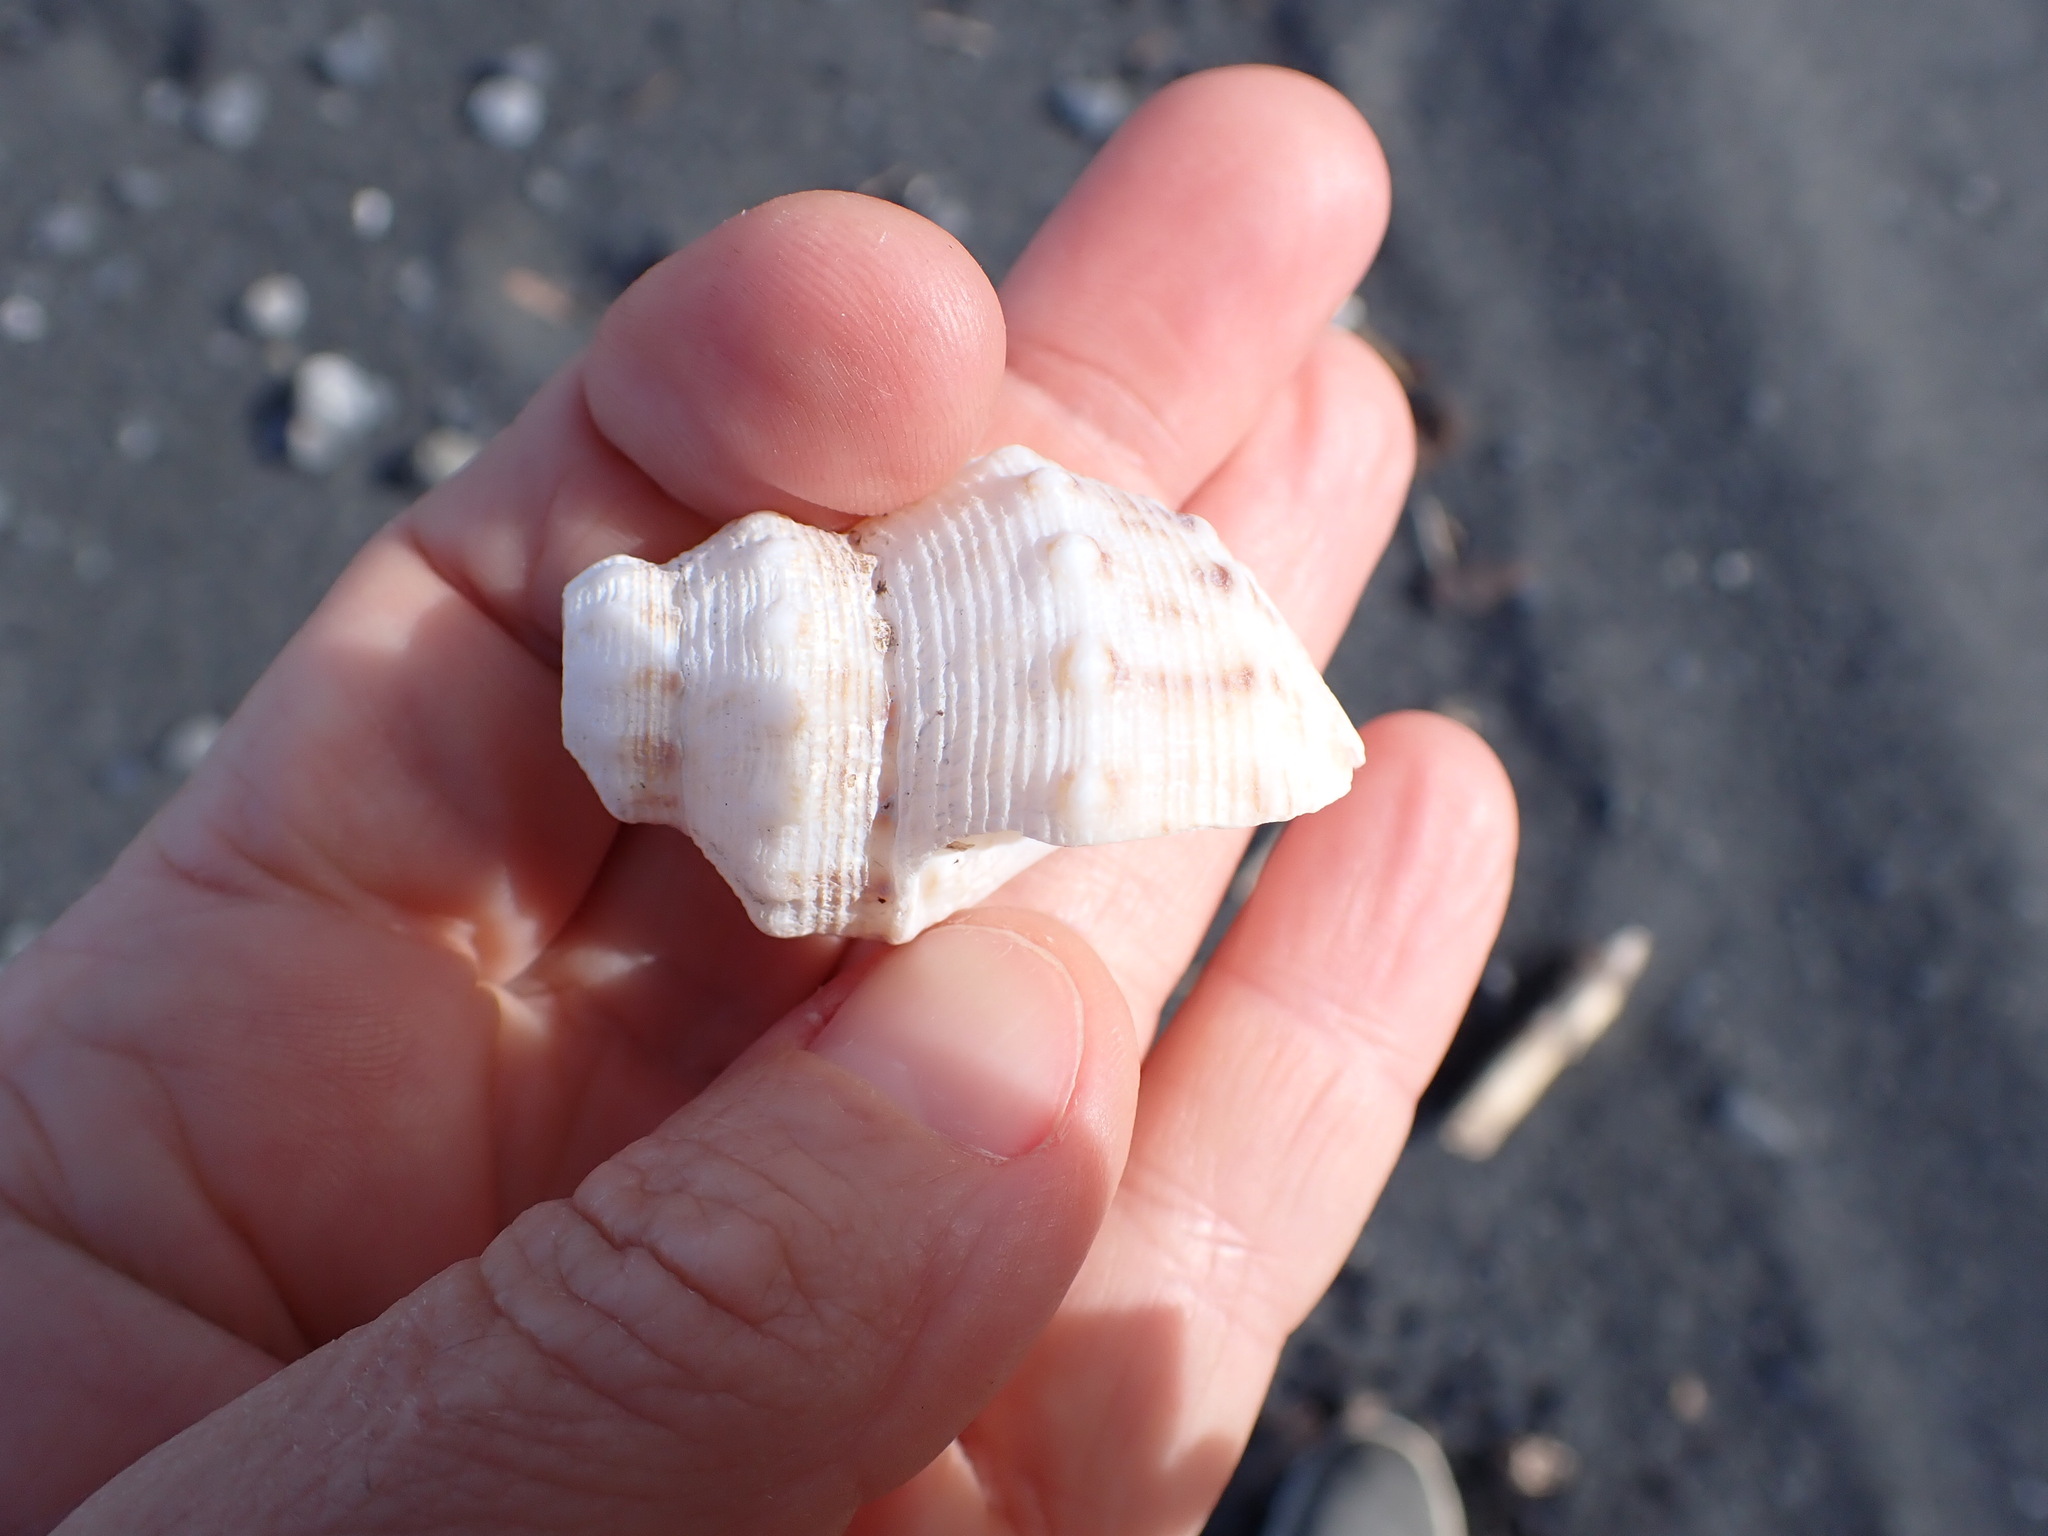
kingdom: Animalia
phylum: Mollusca
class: Gastropoda
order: Neogastropoda
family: Prosiphonidae
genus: Austrofusus
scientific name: Austrofusus glans
